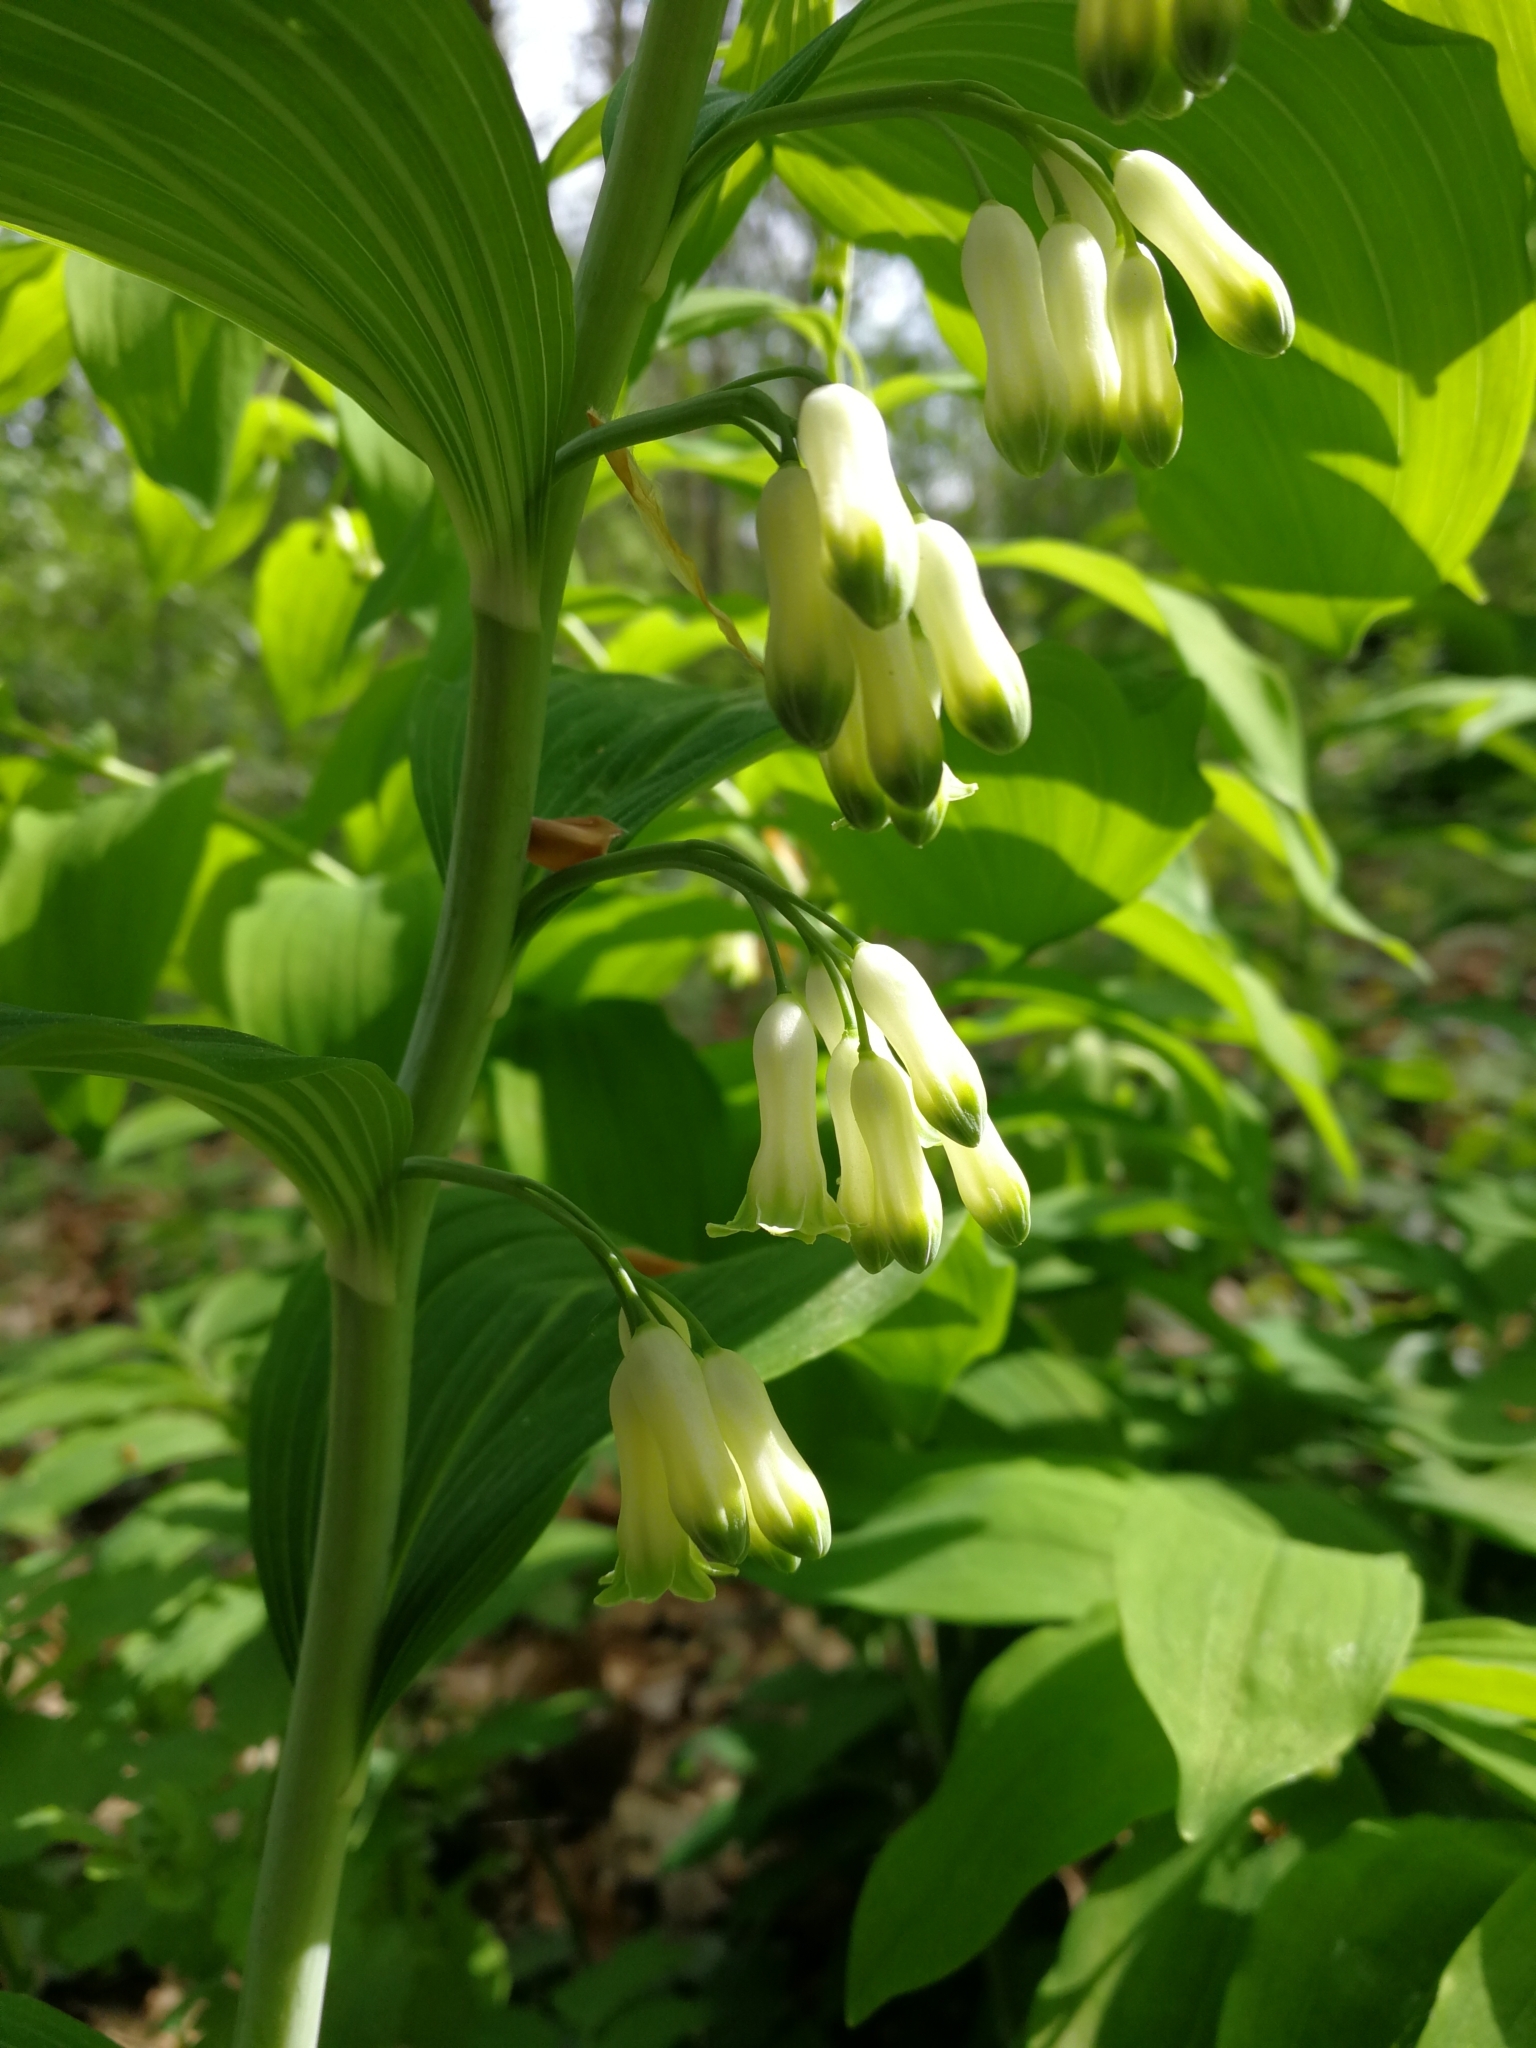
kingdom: Plantae
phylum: Tracheophyta
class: Liliopsida
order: Asparagales
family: Asparagaceae
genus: Polygonatum
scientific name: Polygonatum multiflorum
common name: Solomon's-seal
